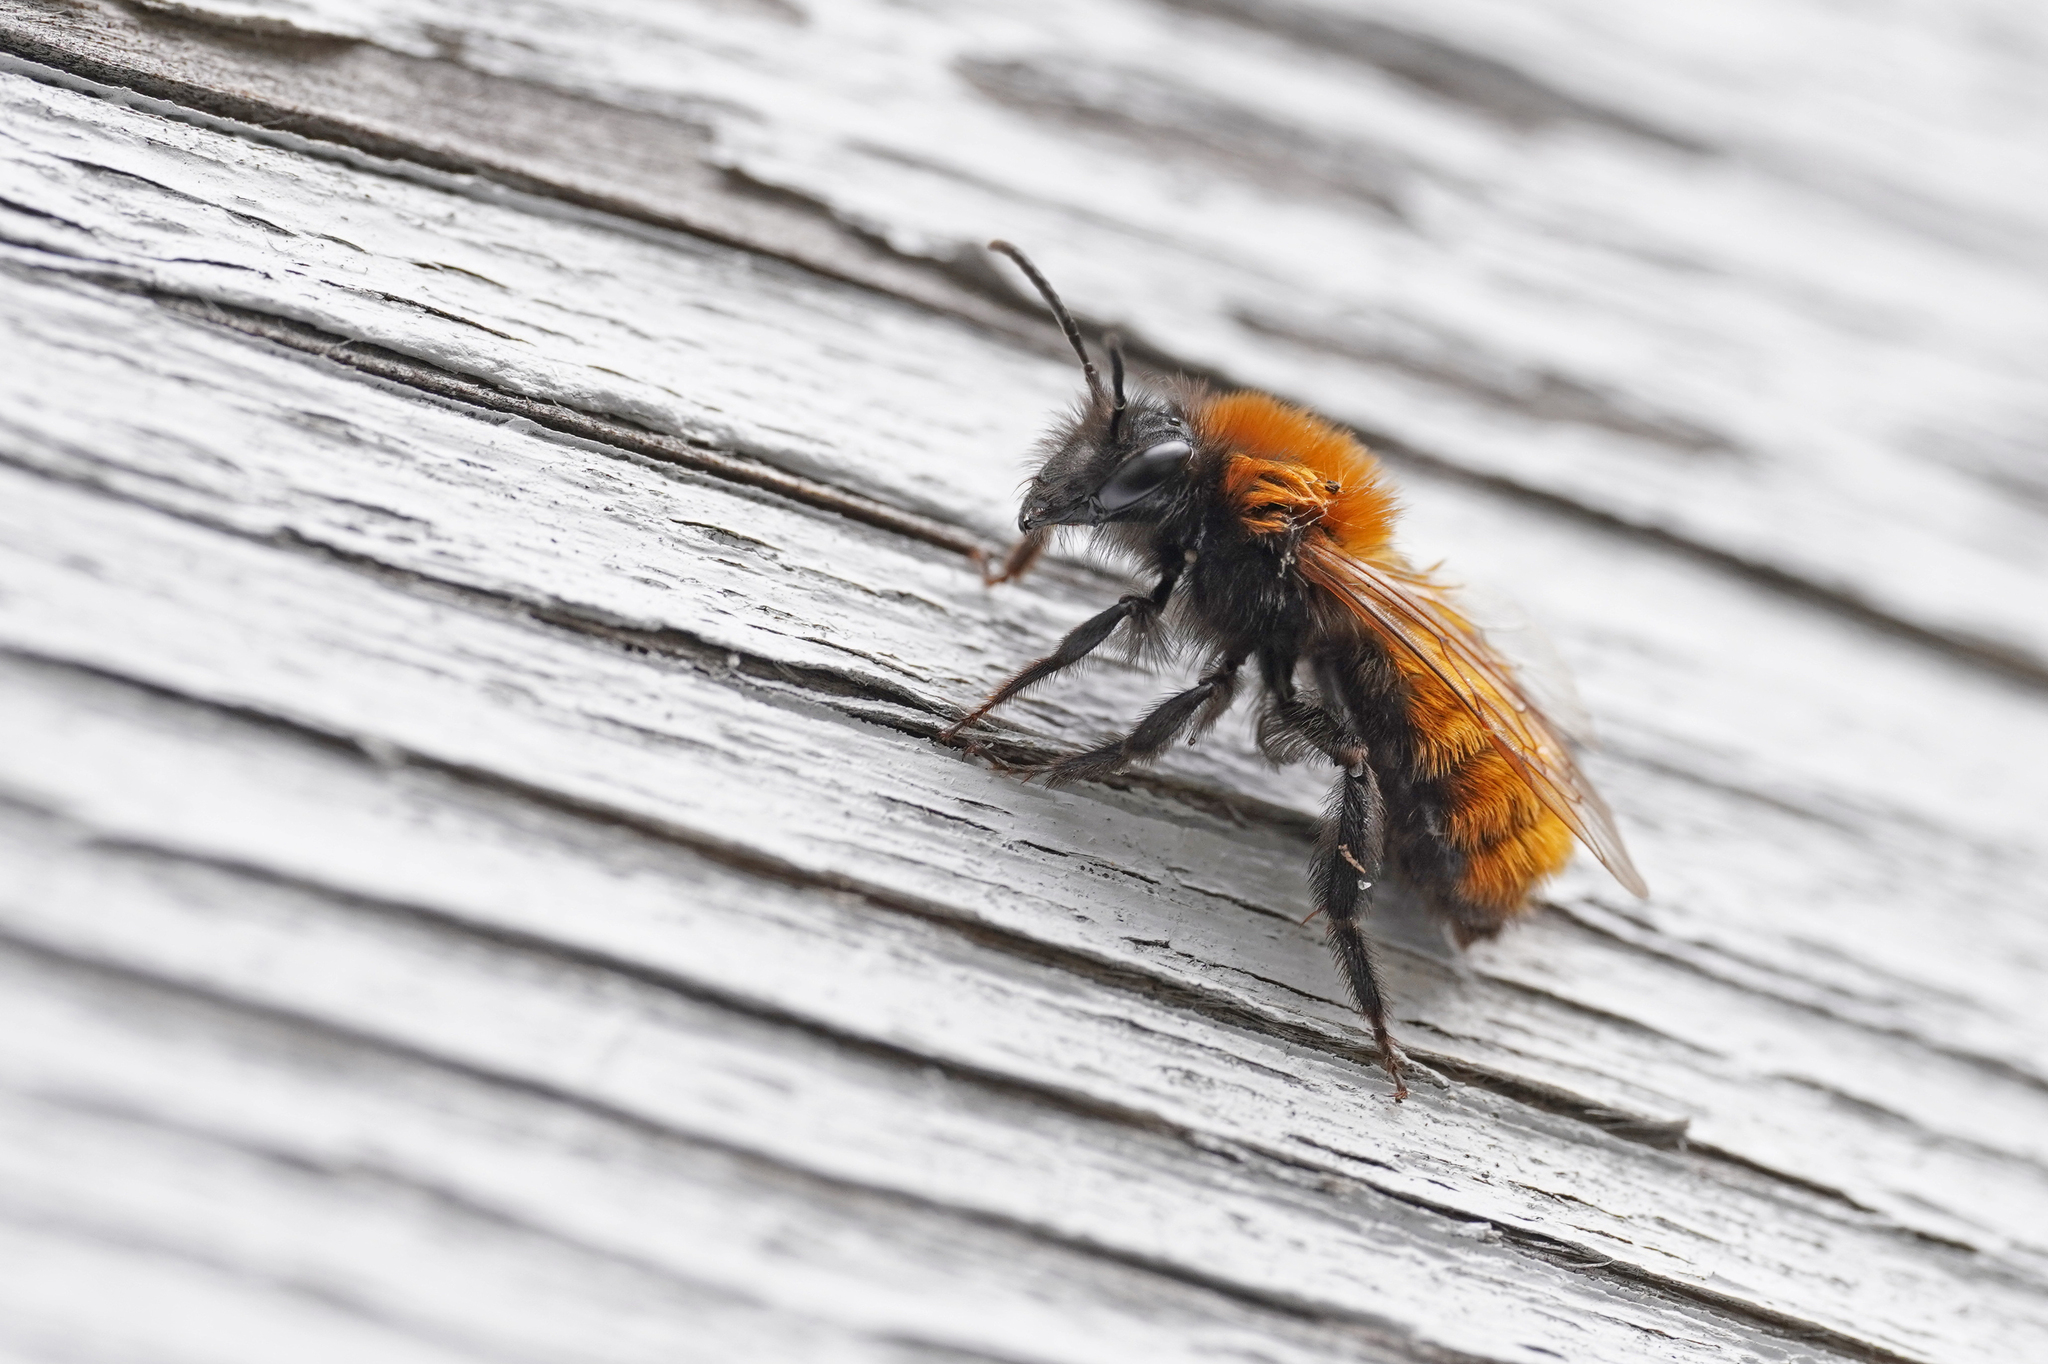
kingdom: Animalia
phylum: Arthropoda
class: Insecta
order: Hymenoptera
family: Andrenidae
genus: Andrena
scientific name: Andrena fulva
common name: Tawny mining bee
